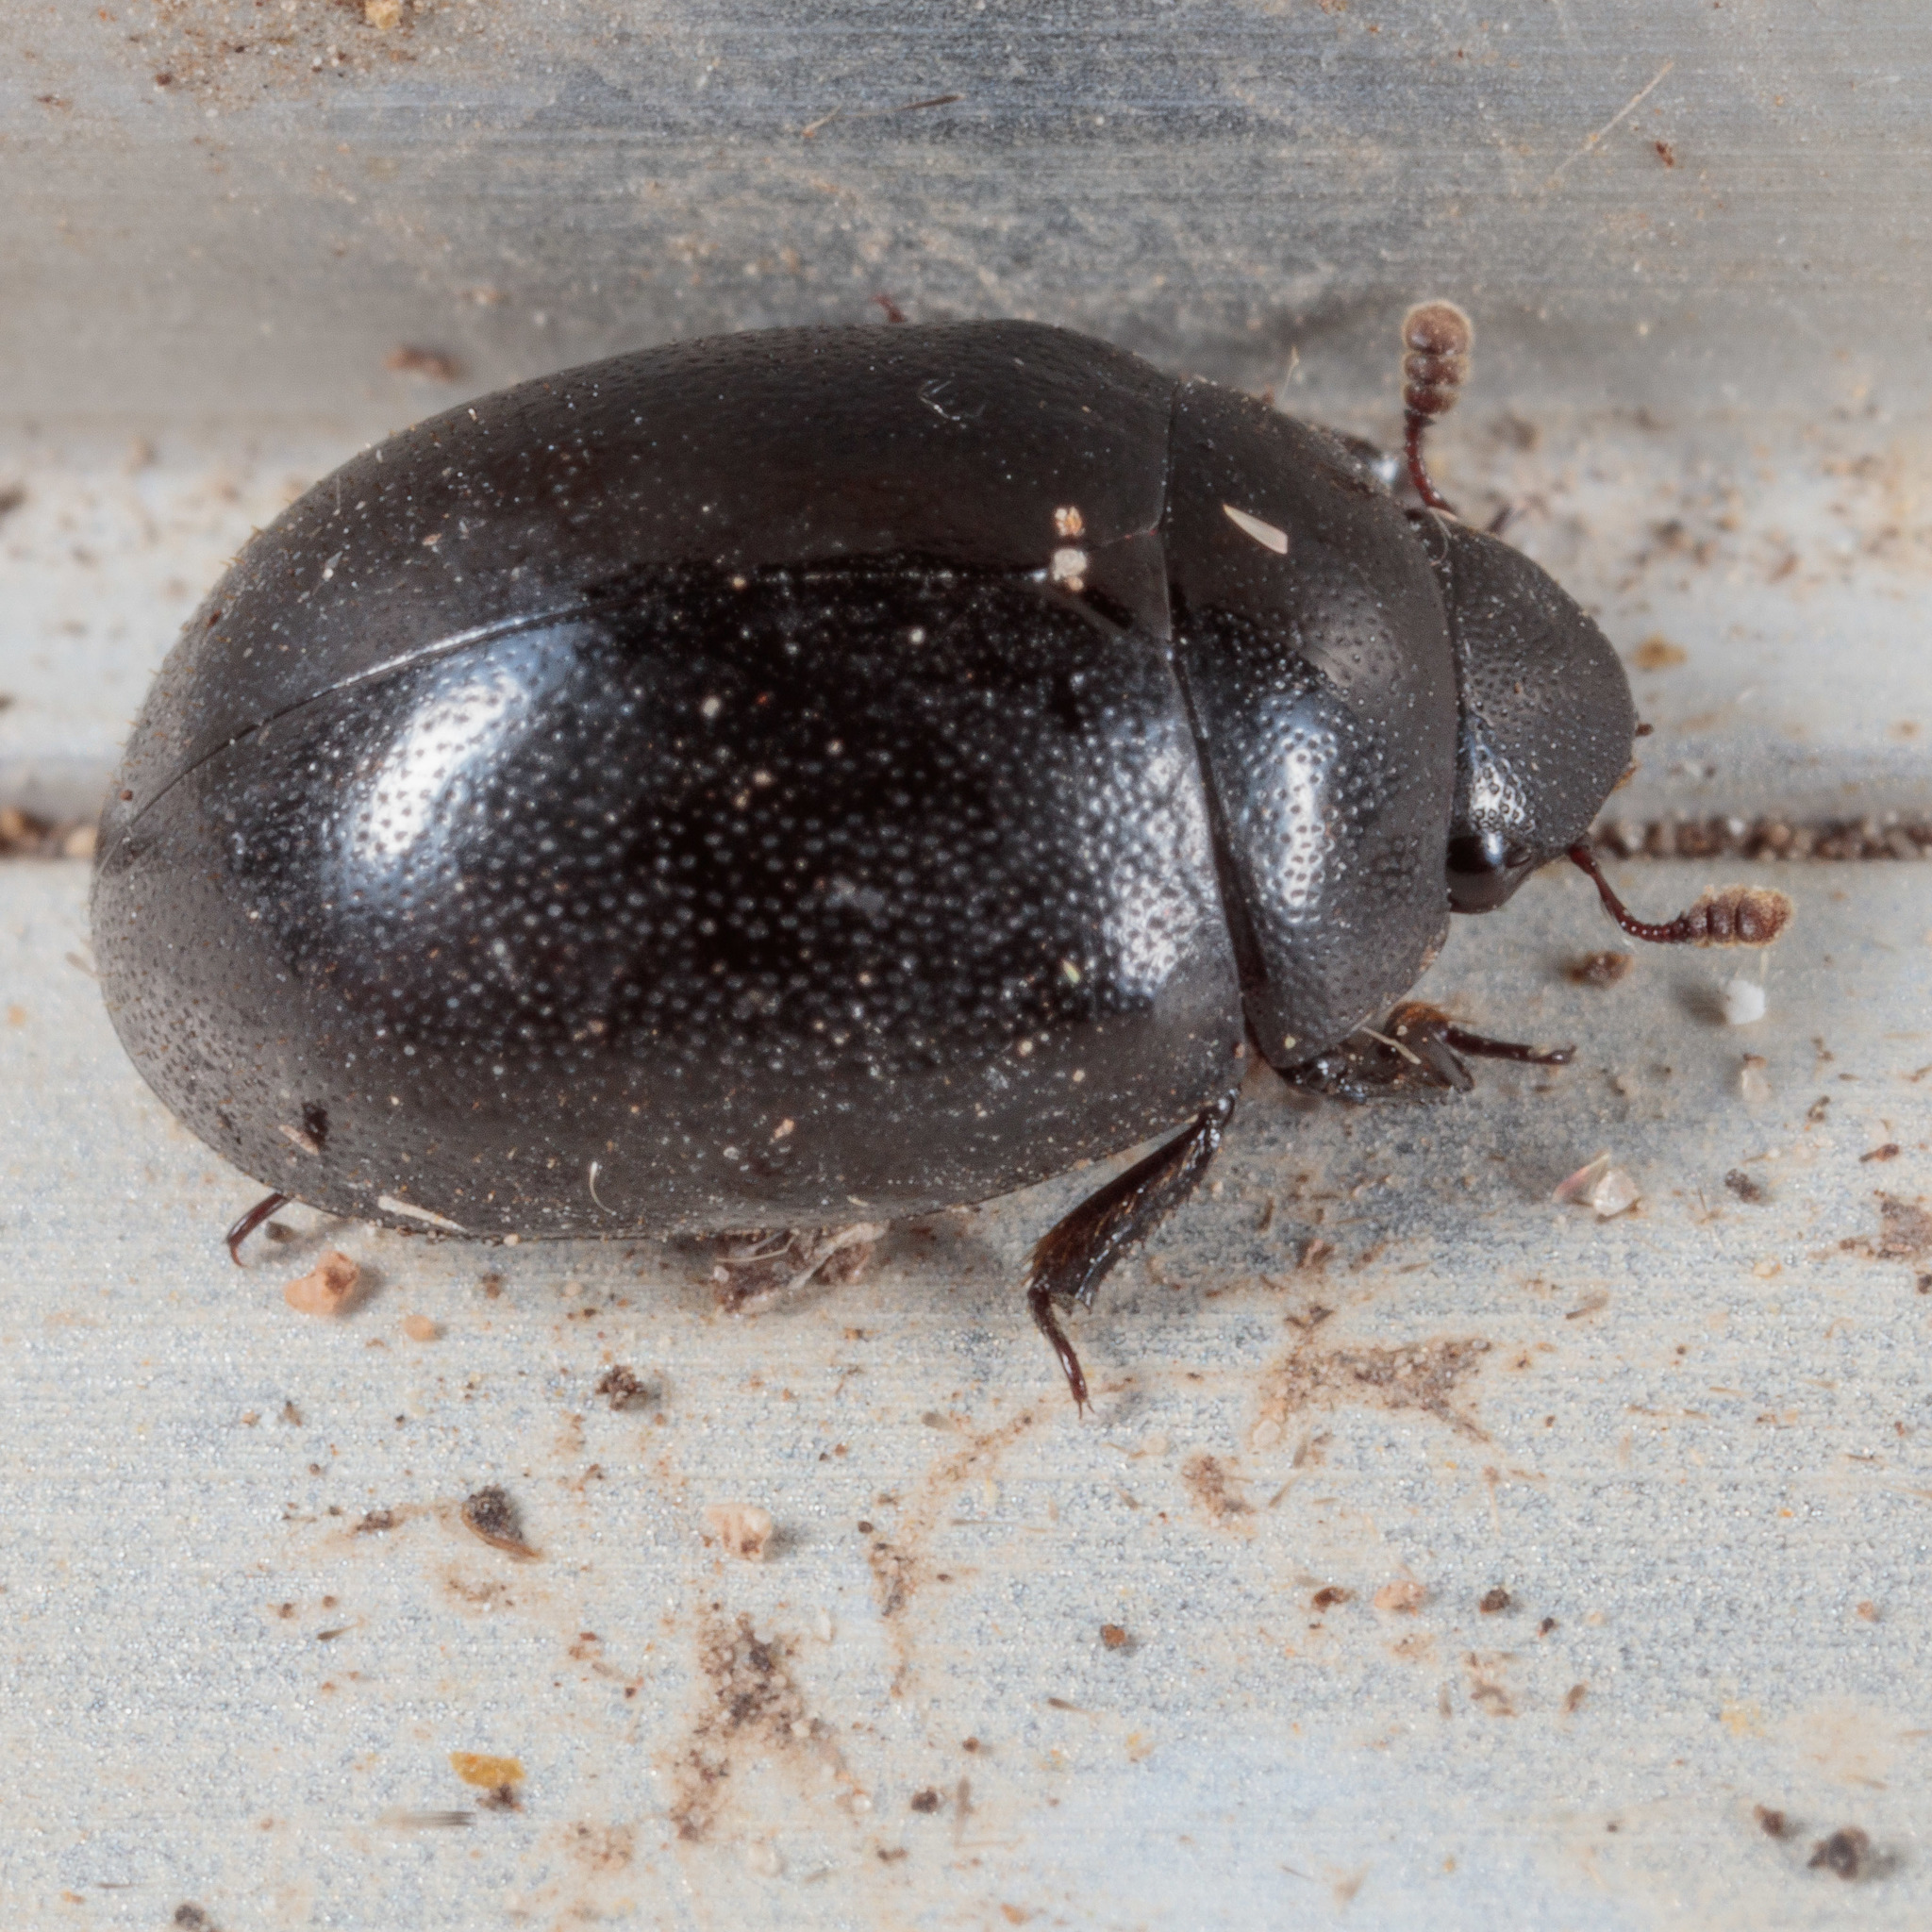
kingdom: Animalia
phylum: Arthropoda
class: Insecta
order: Coleoptera
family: Nosodendridae
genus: Nosodendron
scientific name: Nosodendron unicolor
